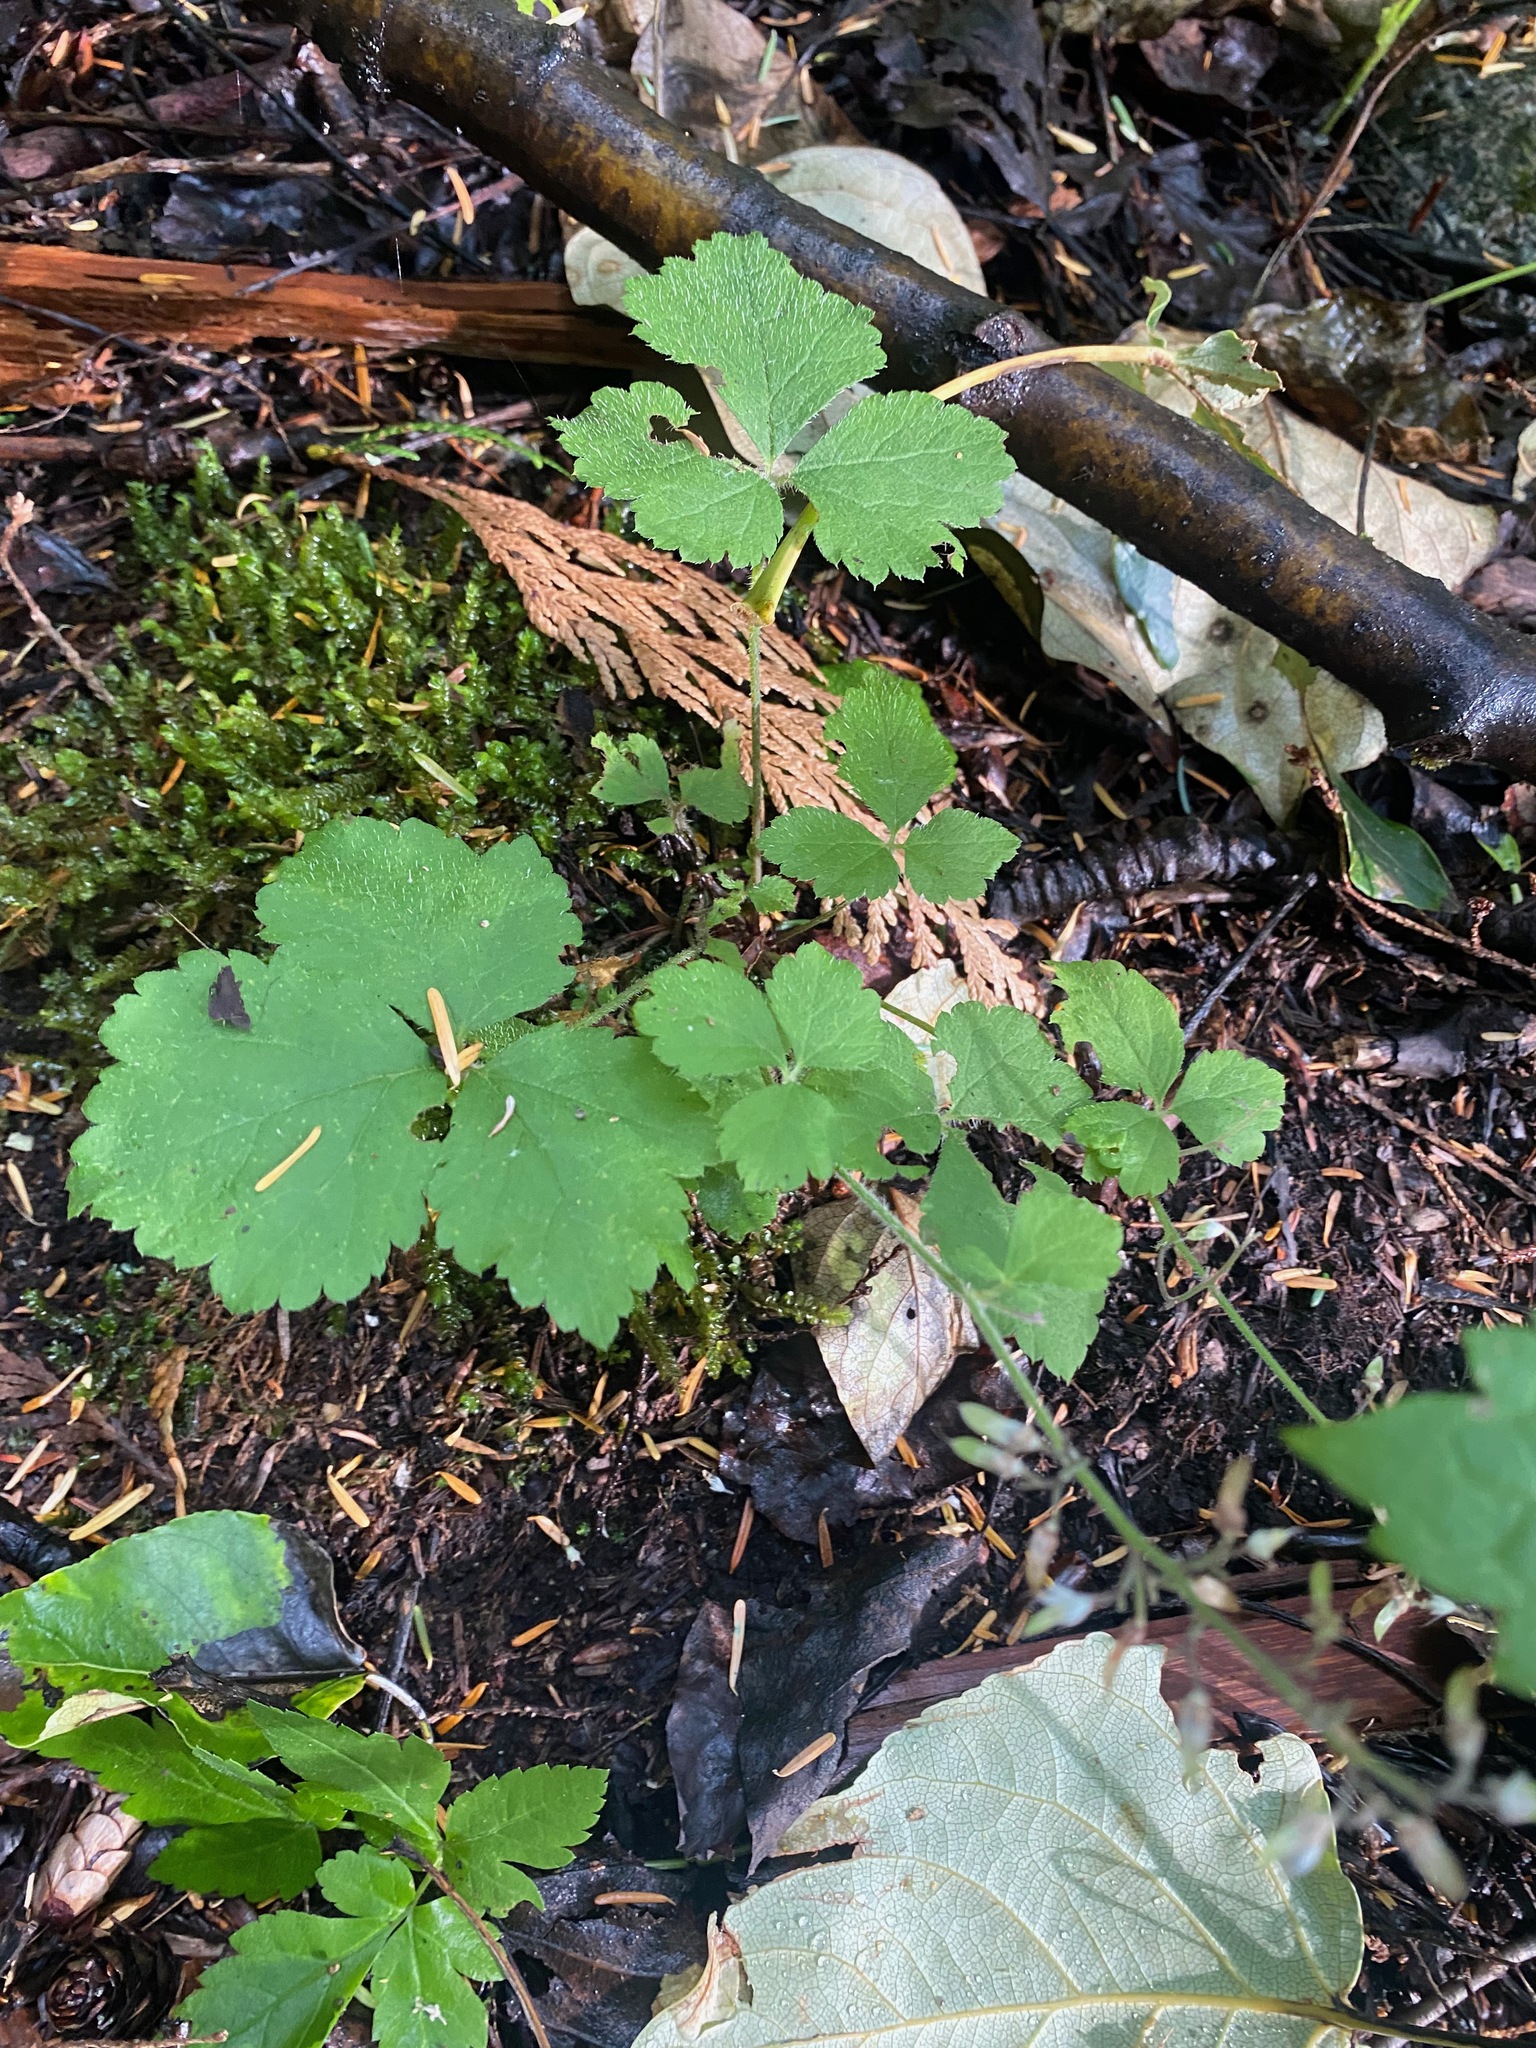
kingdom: Plantae
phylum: Tracheophyta
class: Magnoliopsida
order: Saxifragales
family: Saxifragaceae
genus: Tiarella
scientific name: Tiarella trifoliata
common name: Sugar-scoop
